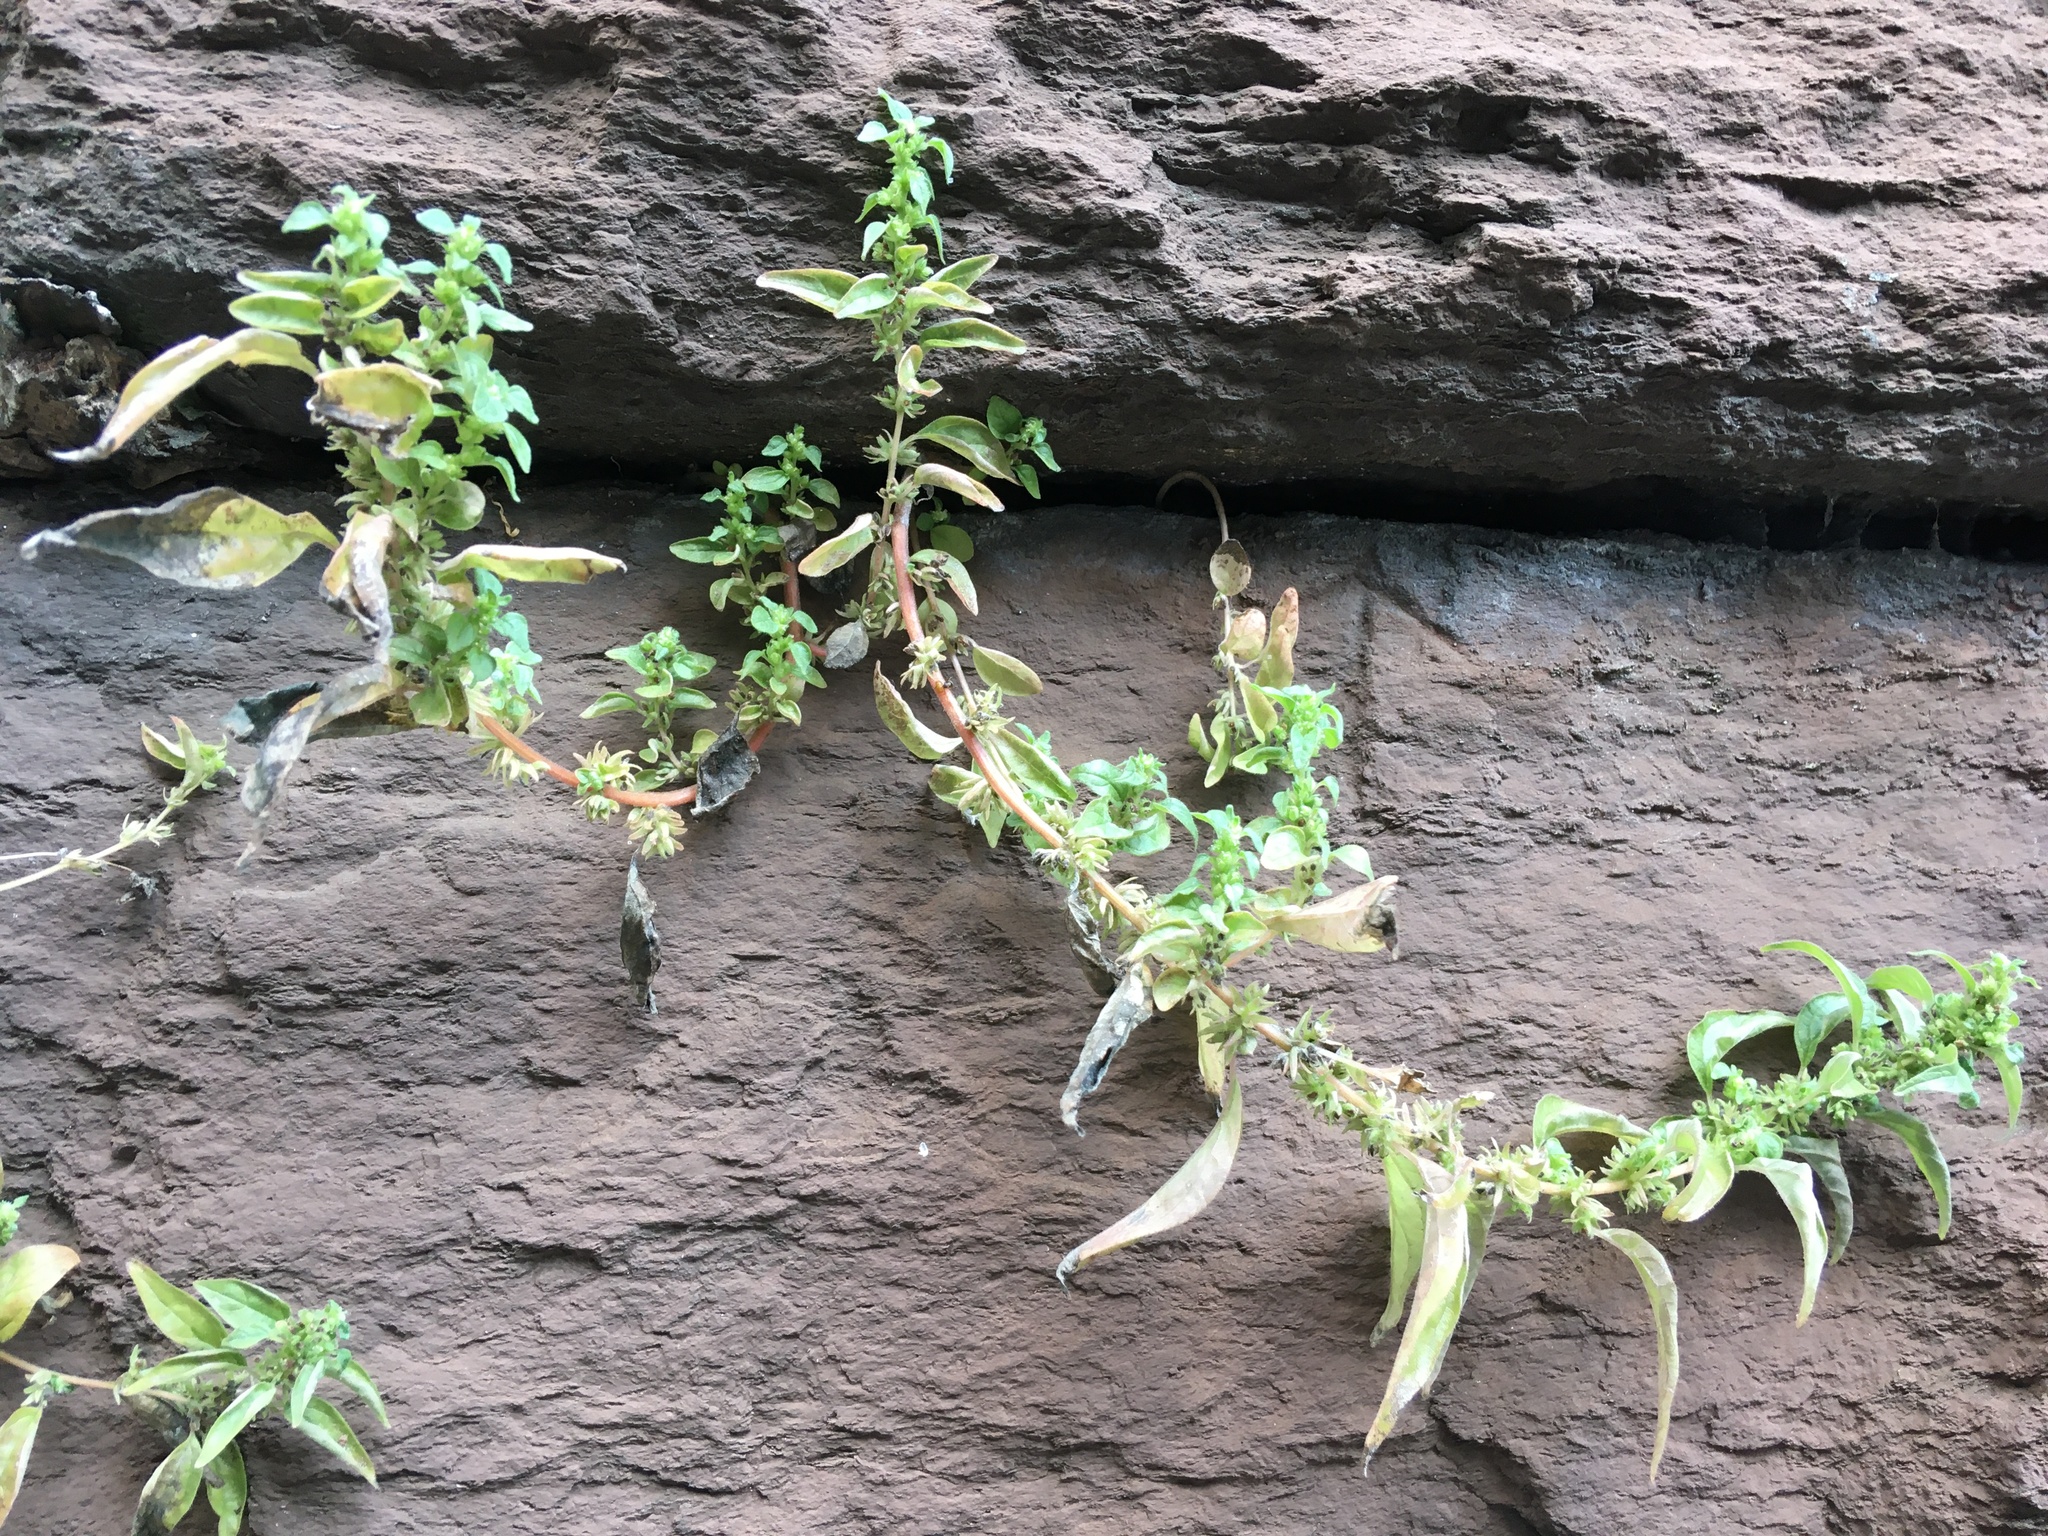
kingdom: Plantae
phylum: Tracheophyta
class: Magnoliopsida
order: Rosales
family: Urticaceae
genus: Parietaria
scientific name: Parietaria pensylvanica
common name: Pennsylvania pellitory
